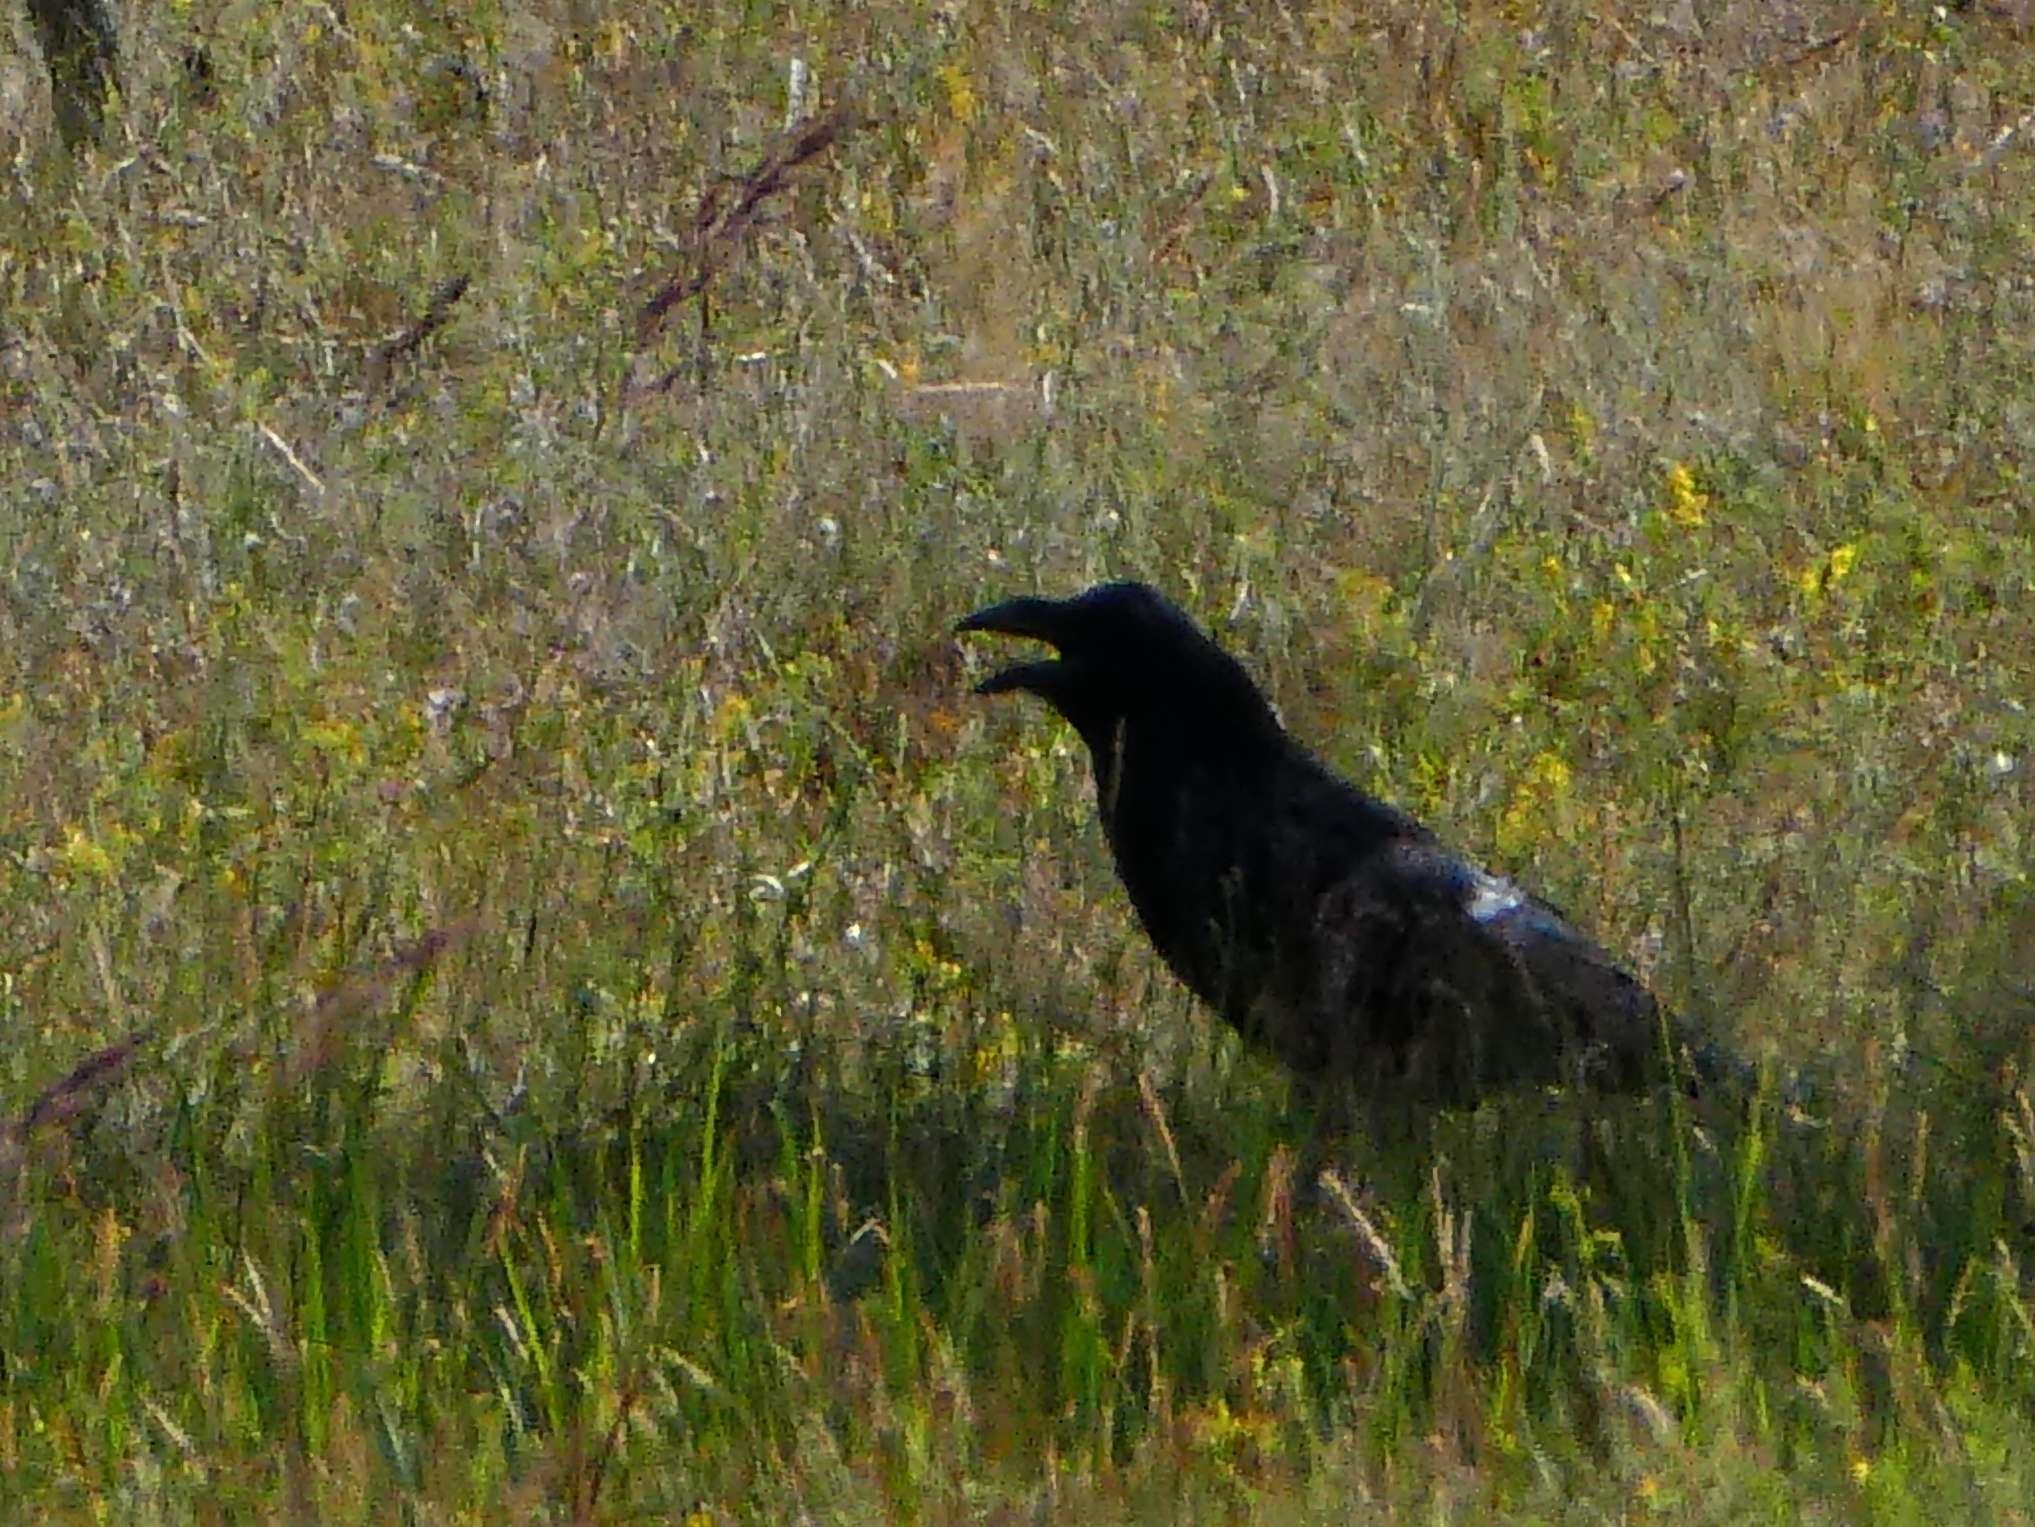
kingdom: Animalia
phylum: Chordata
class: Aves
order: Passeriformes
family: Corvidae
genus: Corvus
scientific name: Corvus corax
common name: Common raven
